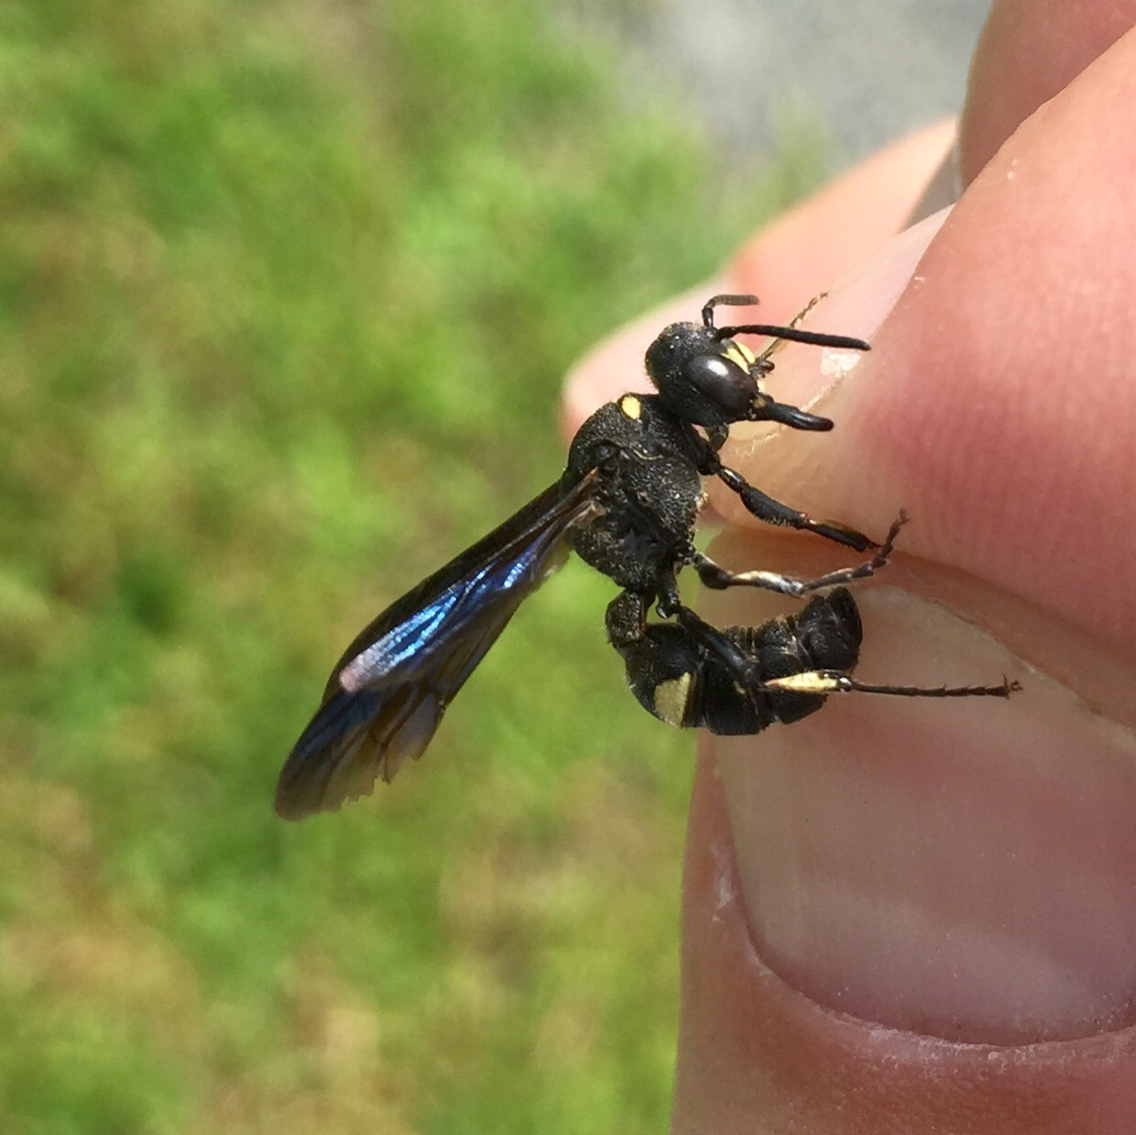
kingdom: Animalia
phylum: Arthropoda
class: Insecta
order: Hymenoptera
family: Crabronidae
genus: Cerceris
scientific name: Cerceris fumipennis
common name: Smokey-winged beetle bandit wasp
